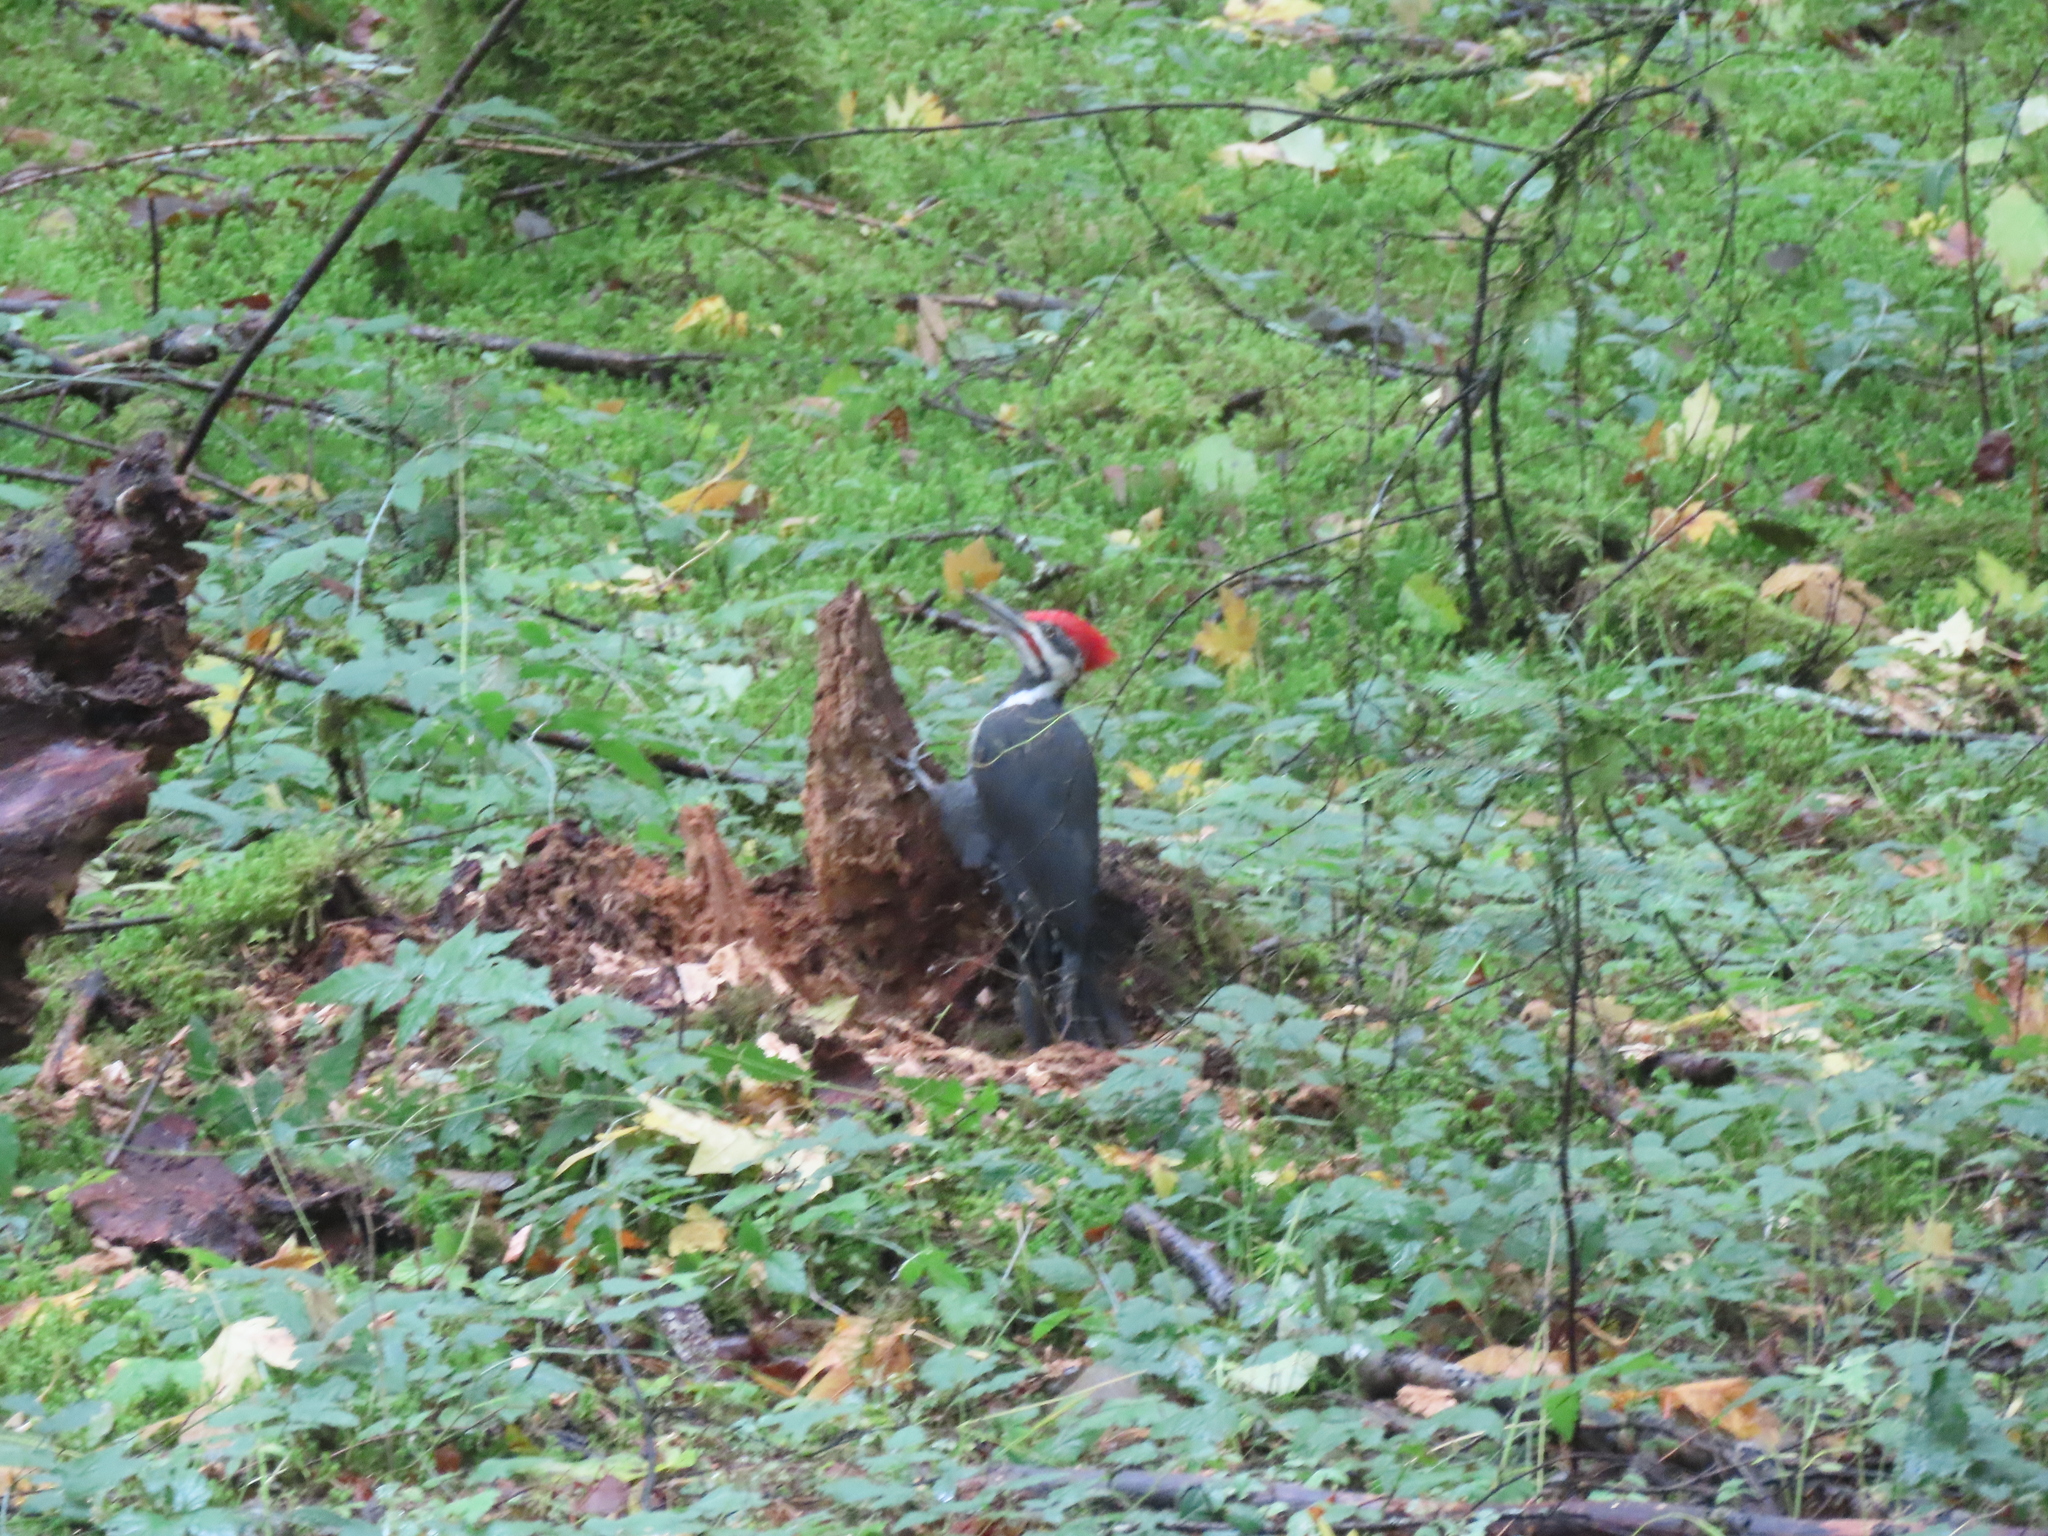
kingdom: Animalia
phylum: Chordata
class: Aves
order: Piciformes
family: Picidae
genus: Dryocopus
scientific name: Dryocopus pileatus
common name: Pileated woodpecker
